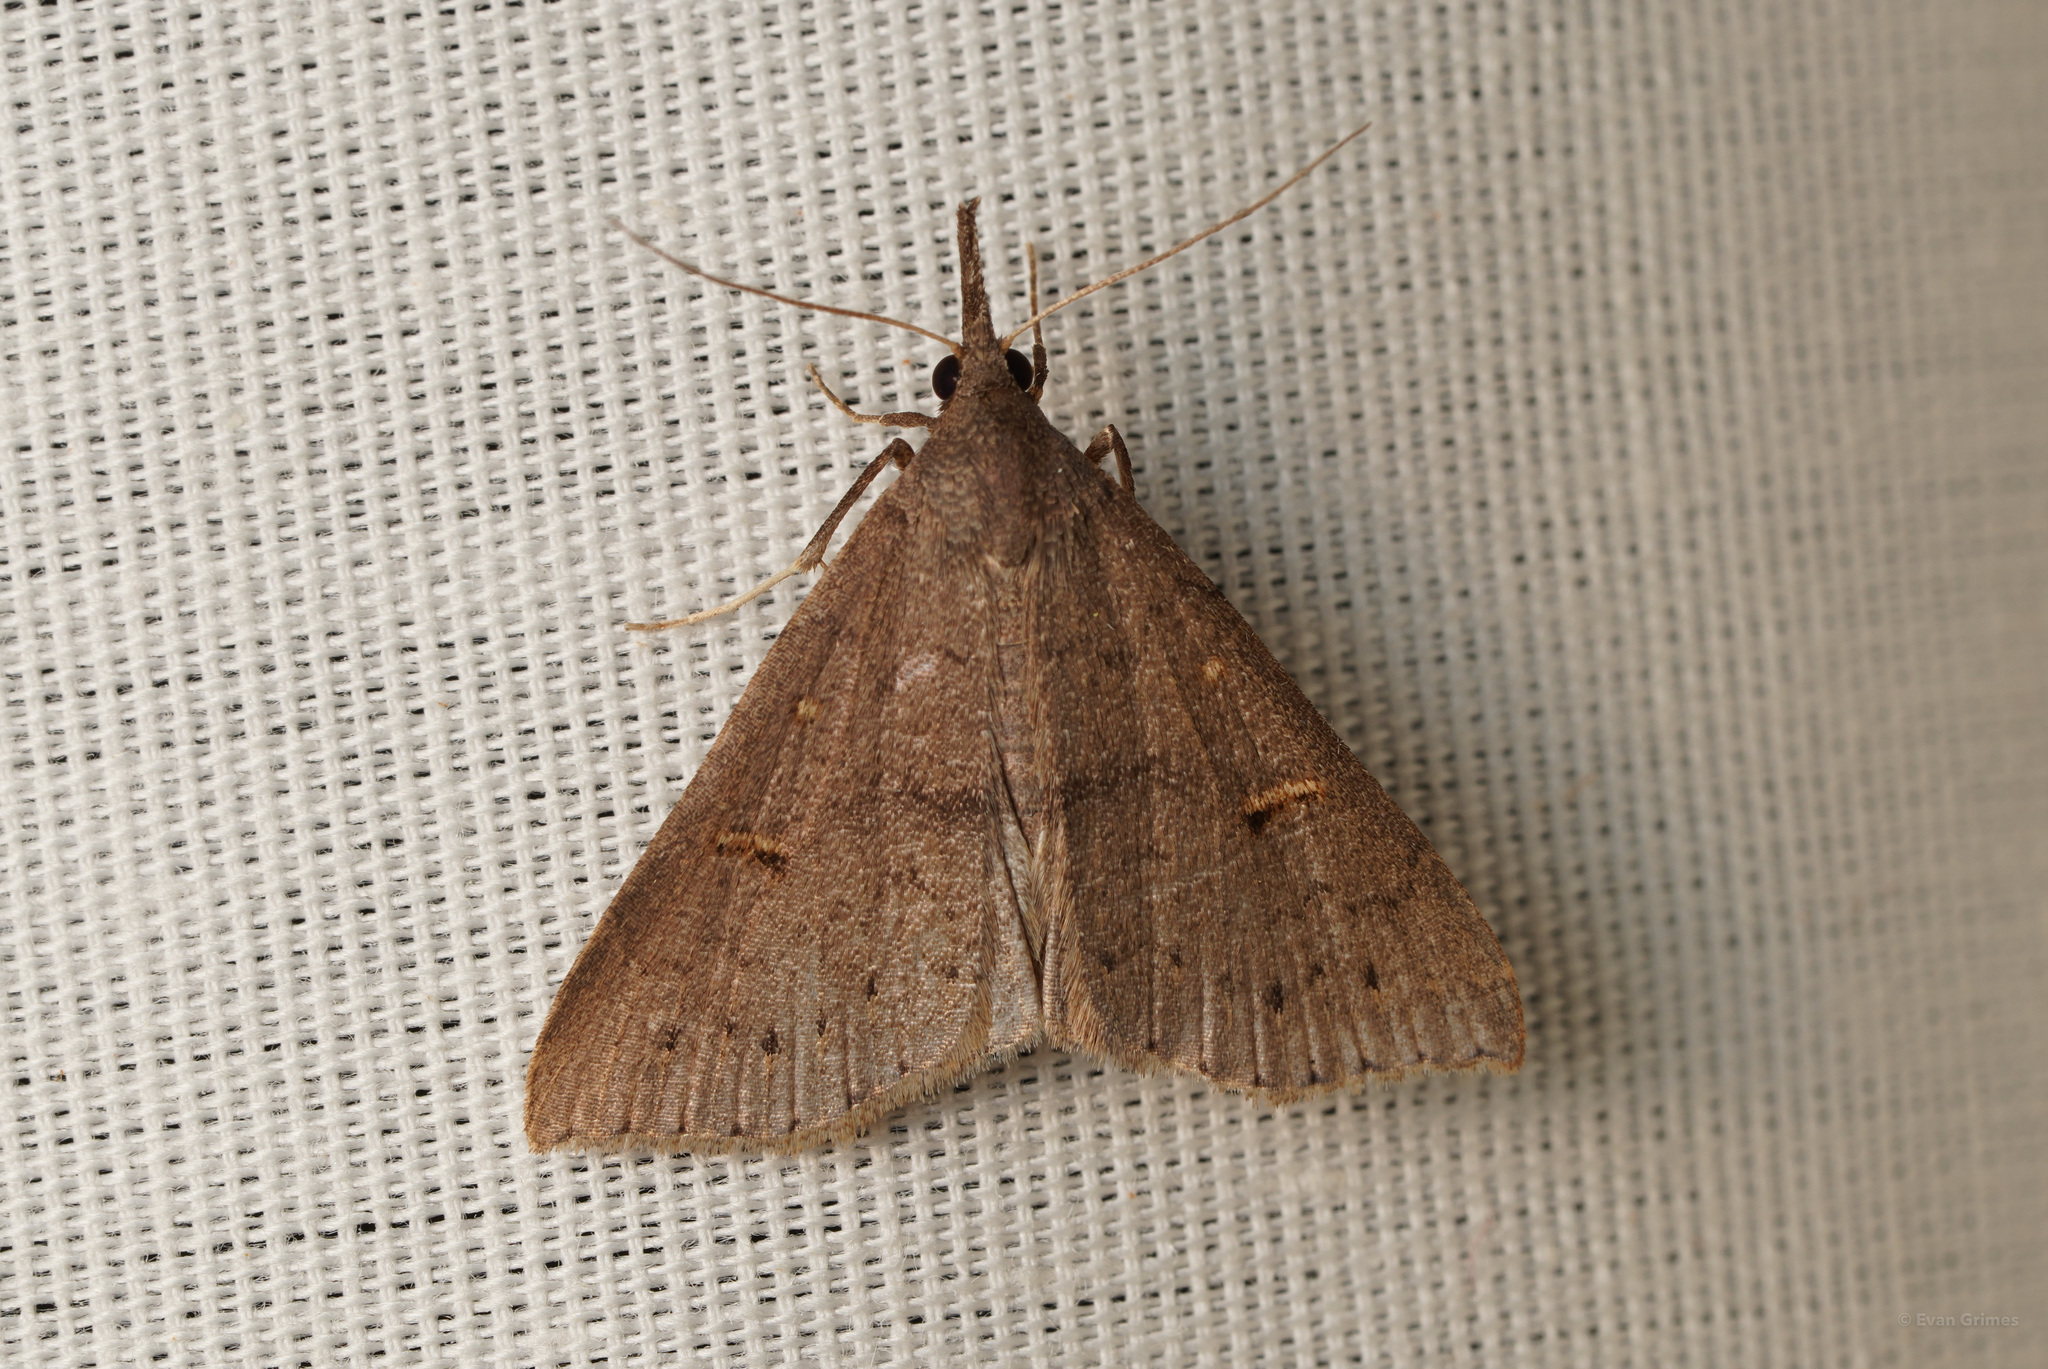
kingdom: Animalia
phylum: Arthropoda
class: Insecta
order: Lepidoptera
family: Erebidae
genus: Renia
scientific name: Renia adspergillus
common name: Speckled renia moth
